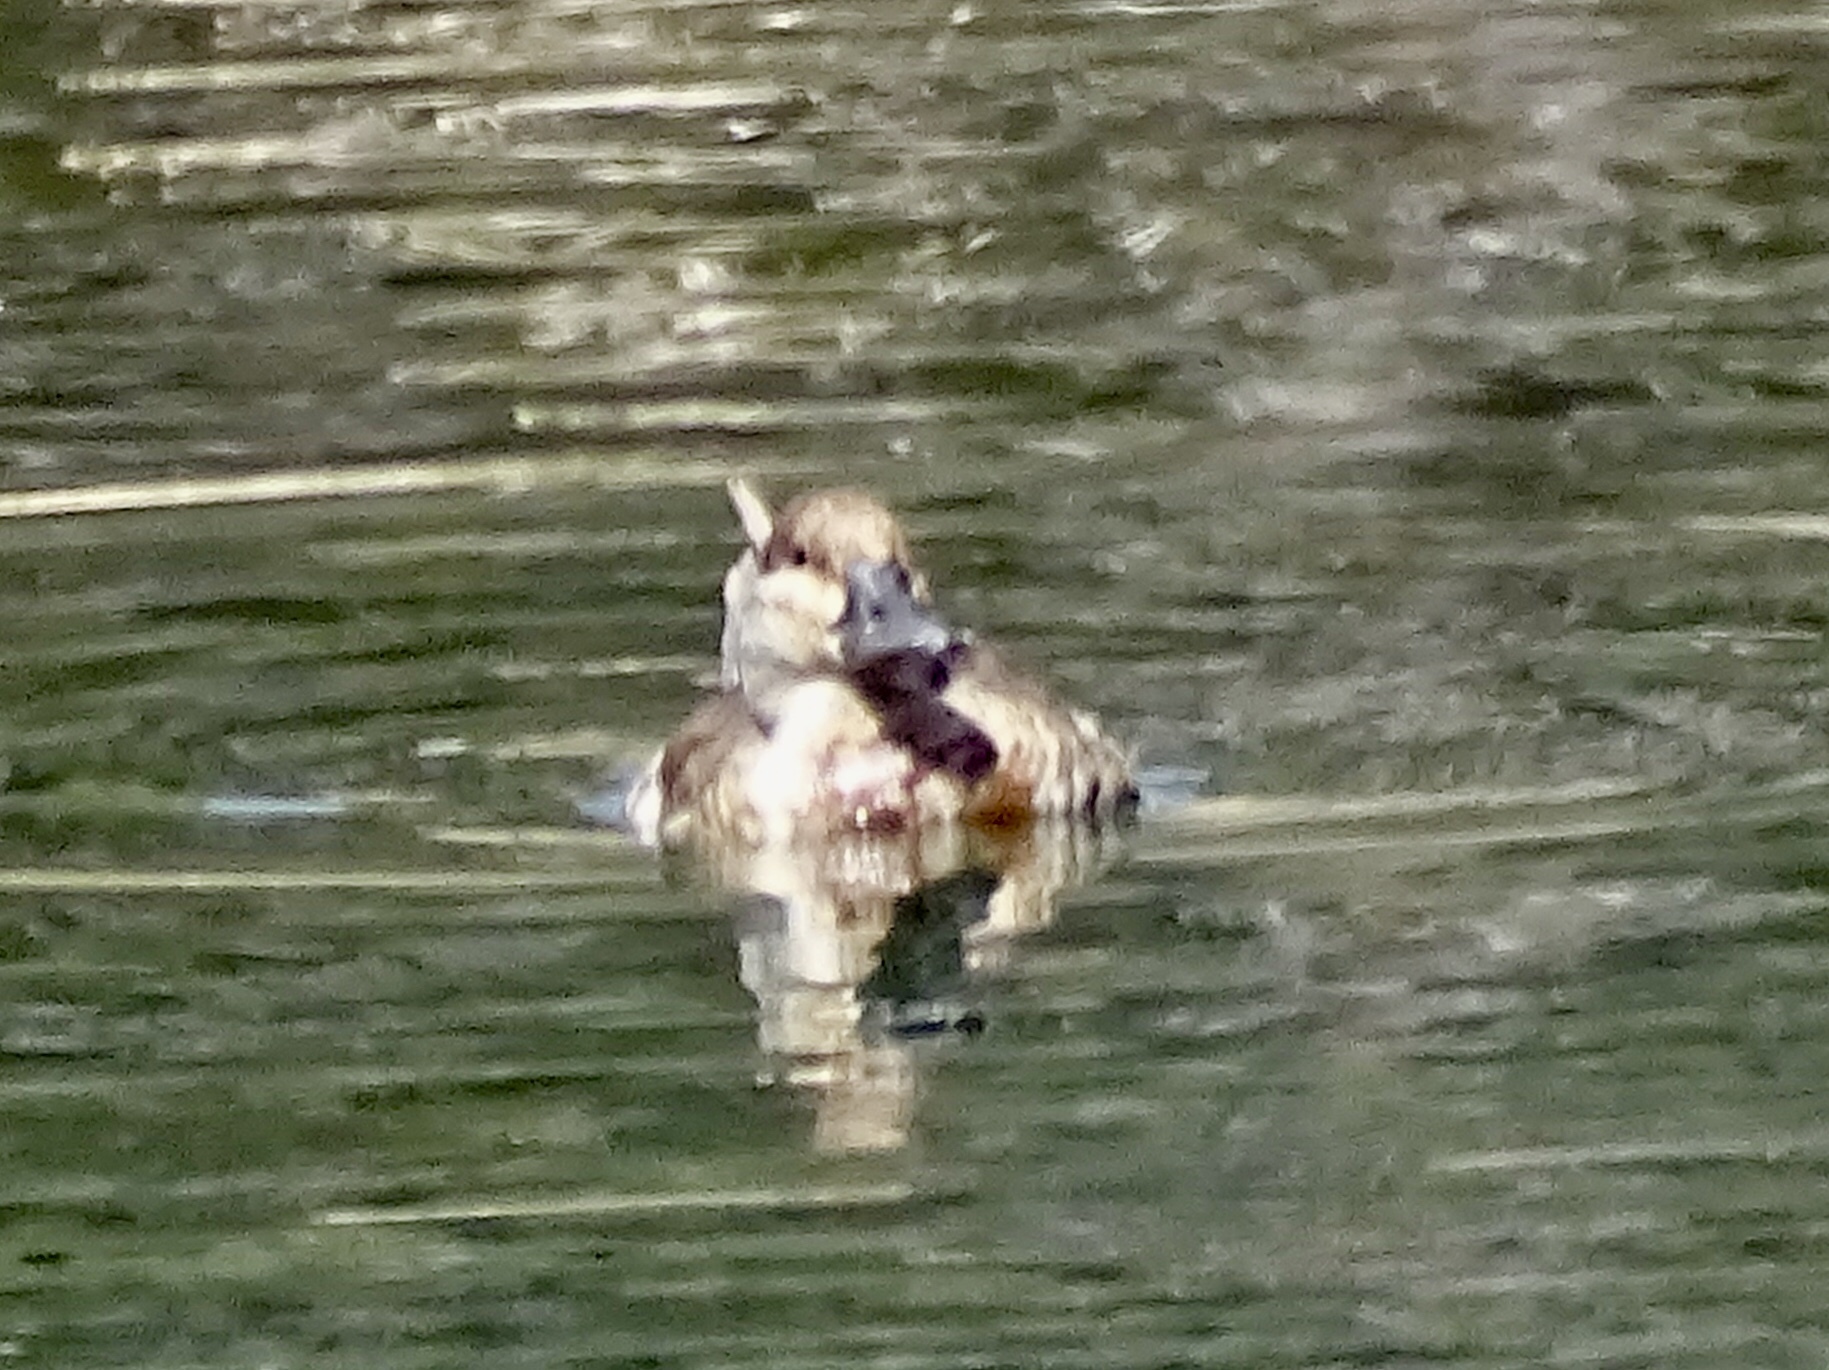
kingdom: Animalia
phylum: Chordata
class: Aves
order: Anseriformes
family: Anatidae
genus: Oxyura
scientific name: Oxyura jamaicensis
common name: Ruddy duck
